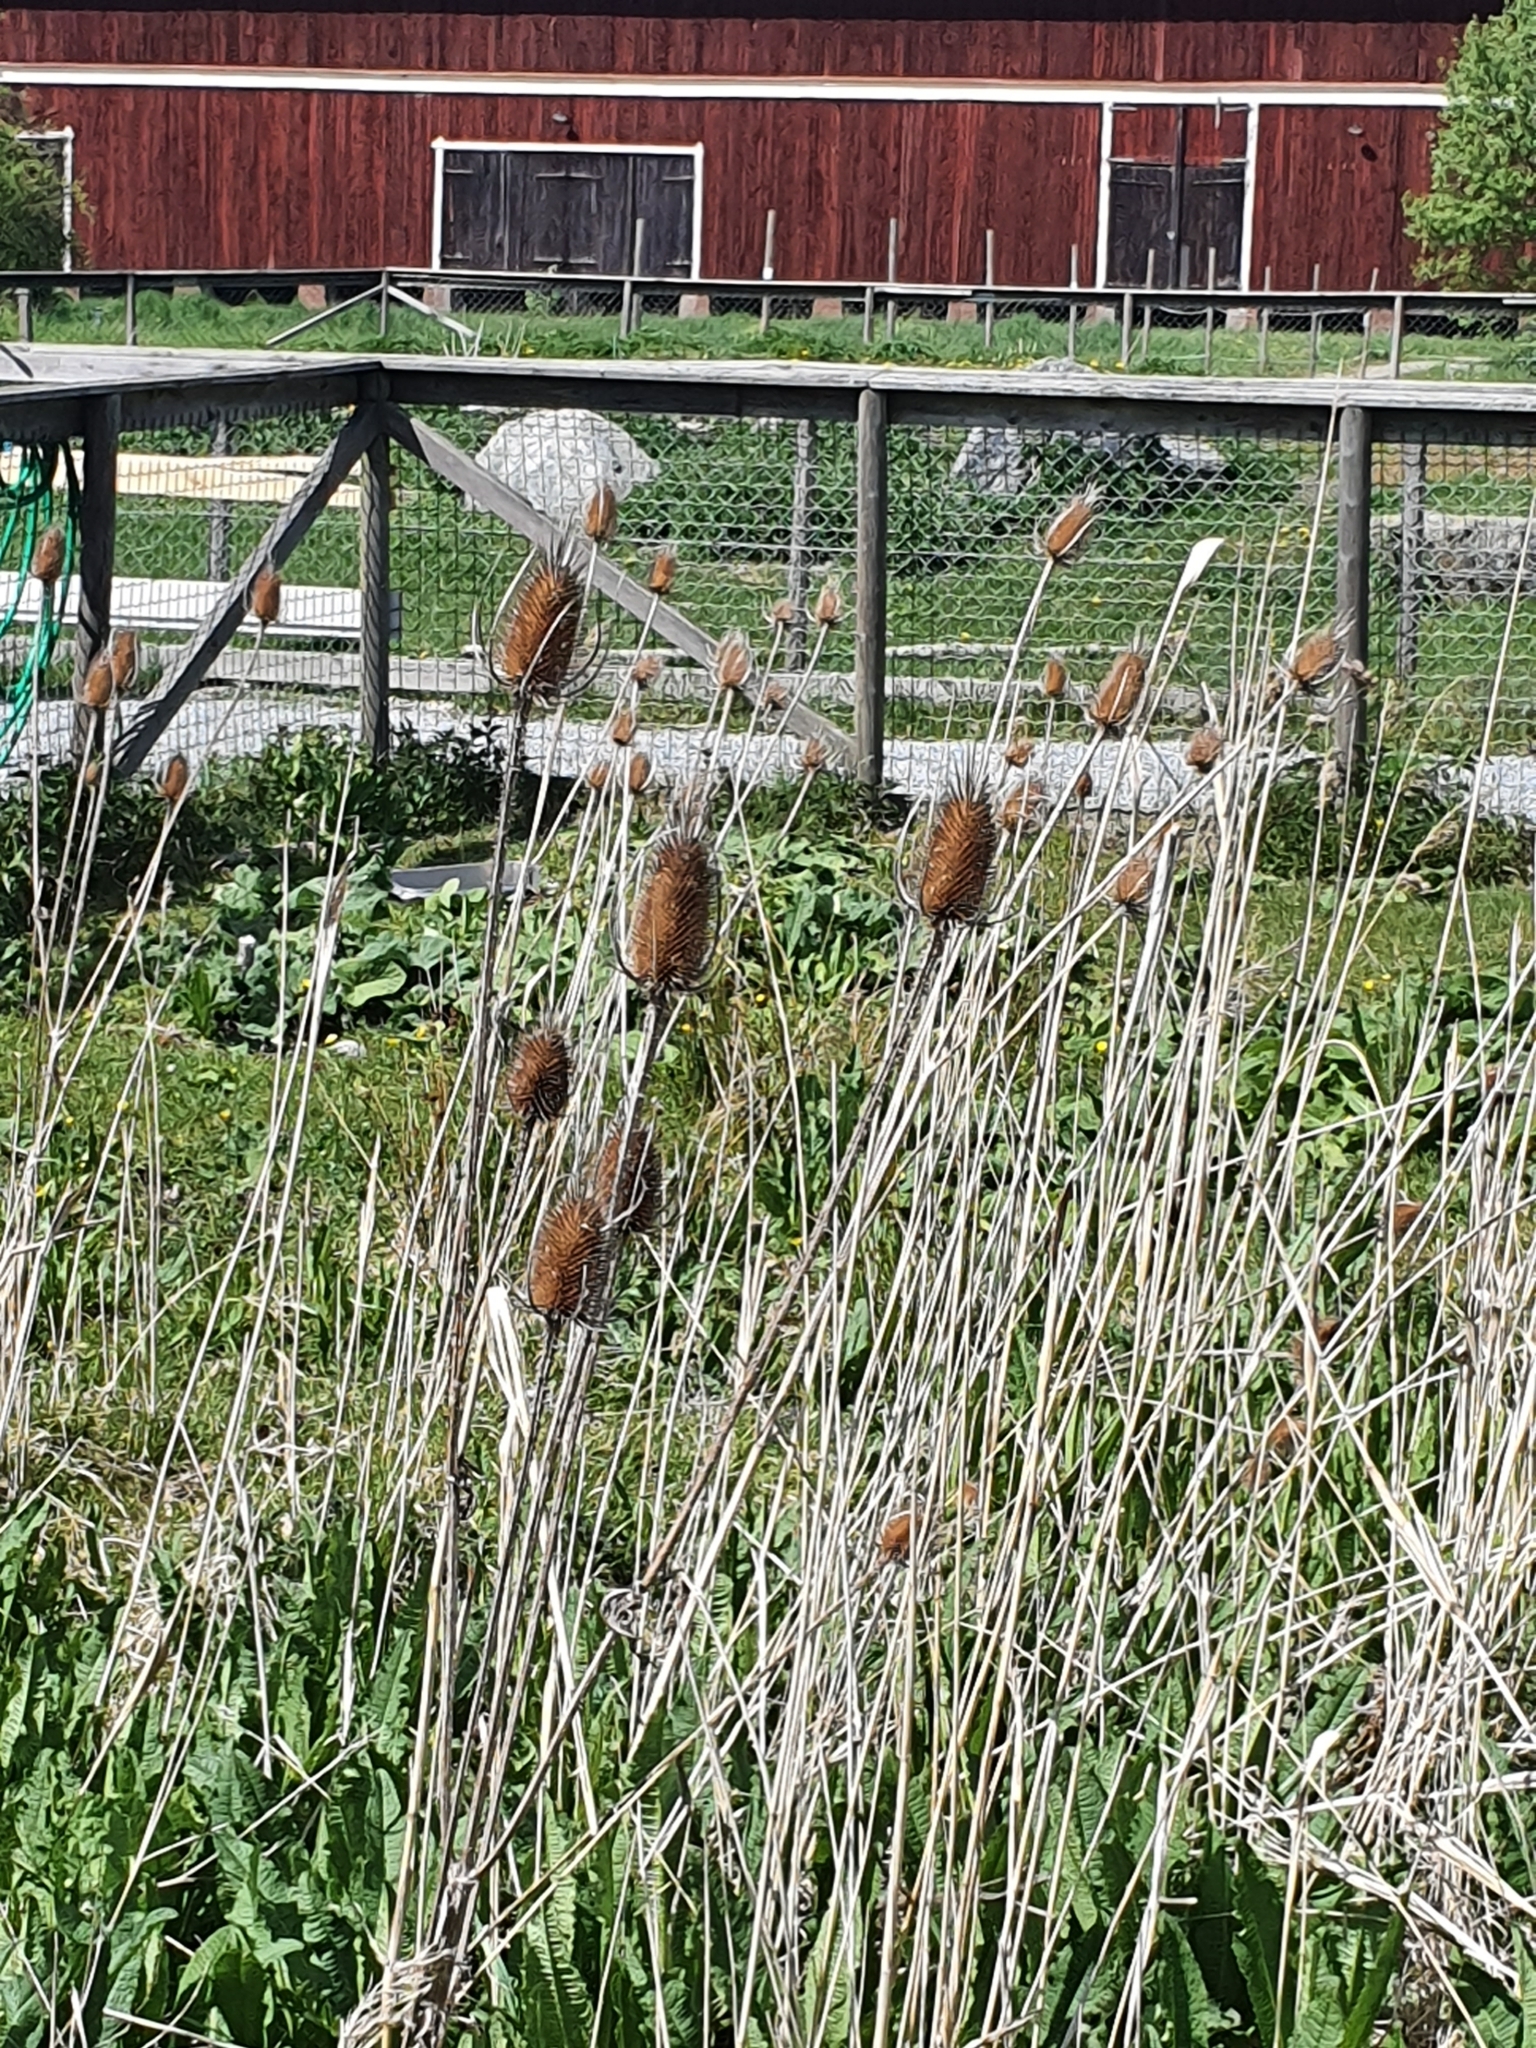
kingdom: Plantae
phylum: Tracheophyta
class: Magnoliopsida
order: Dipsacales
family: Caprifoliaceae
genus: Dipsacus
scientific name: Dipsacus fullonum
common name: Teasel
